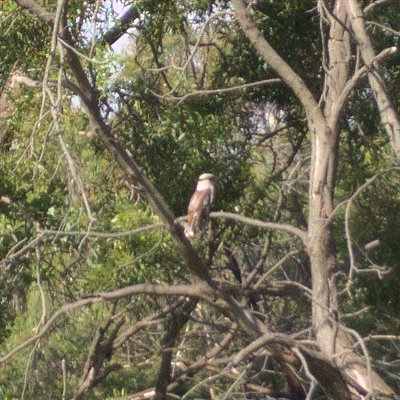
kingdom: Animalia
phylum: Chordata
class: Aves
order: Coraciiformes
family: Alcedinidae
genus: Dacelo
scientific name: Dacelo novaeguineae
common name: Laughing kookaburra
